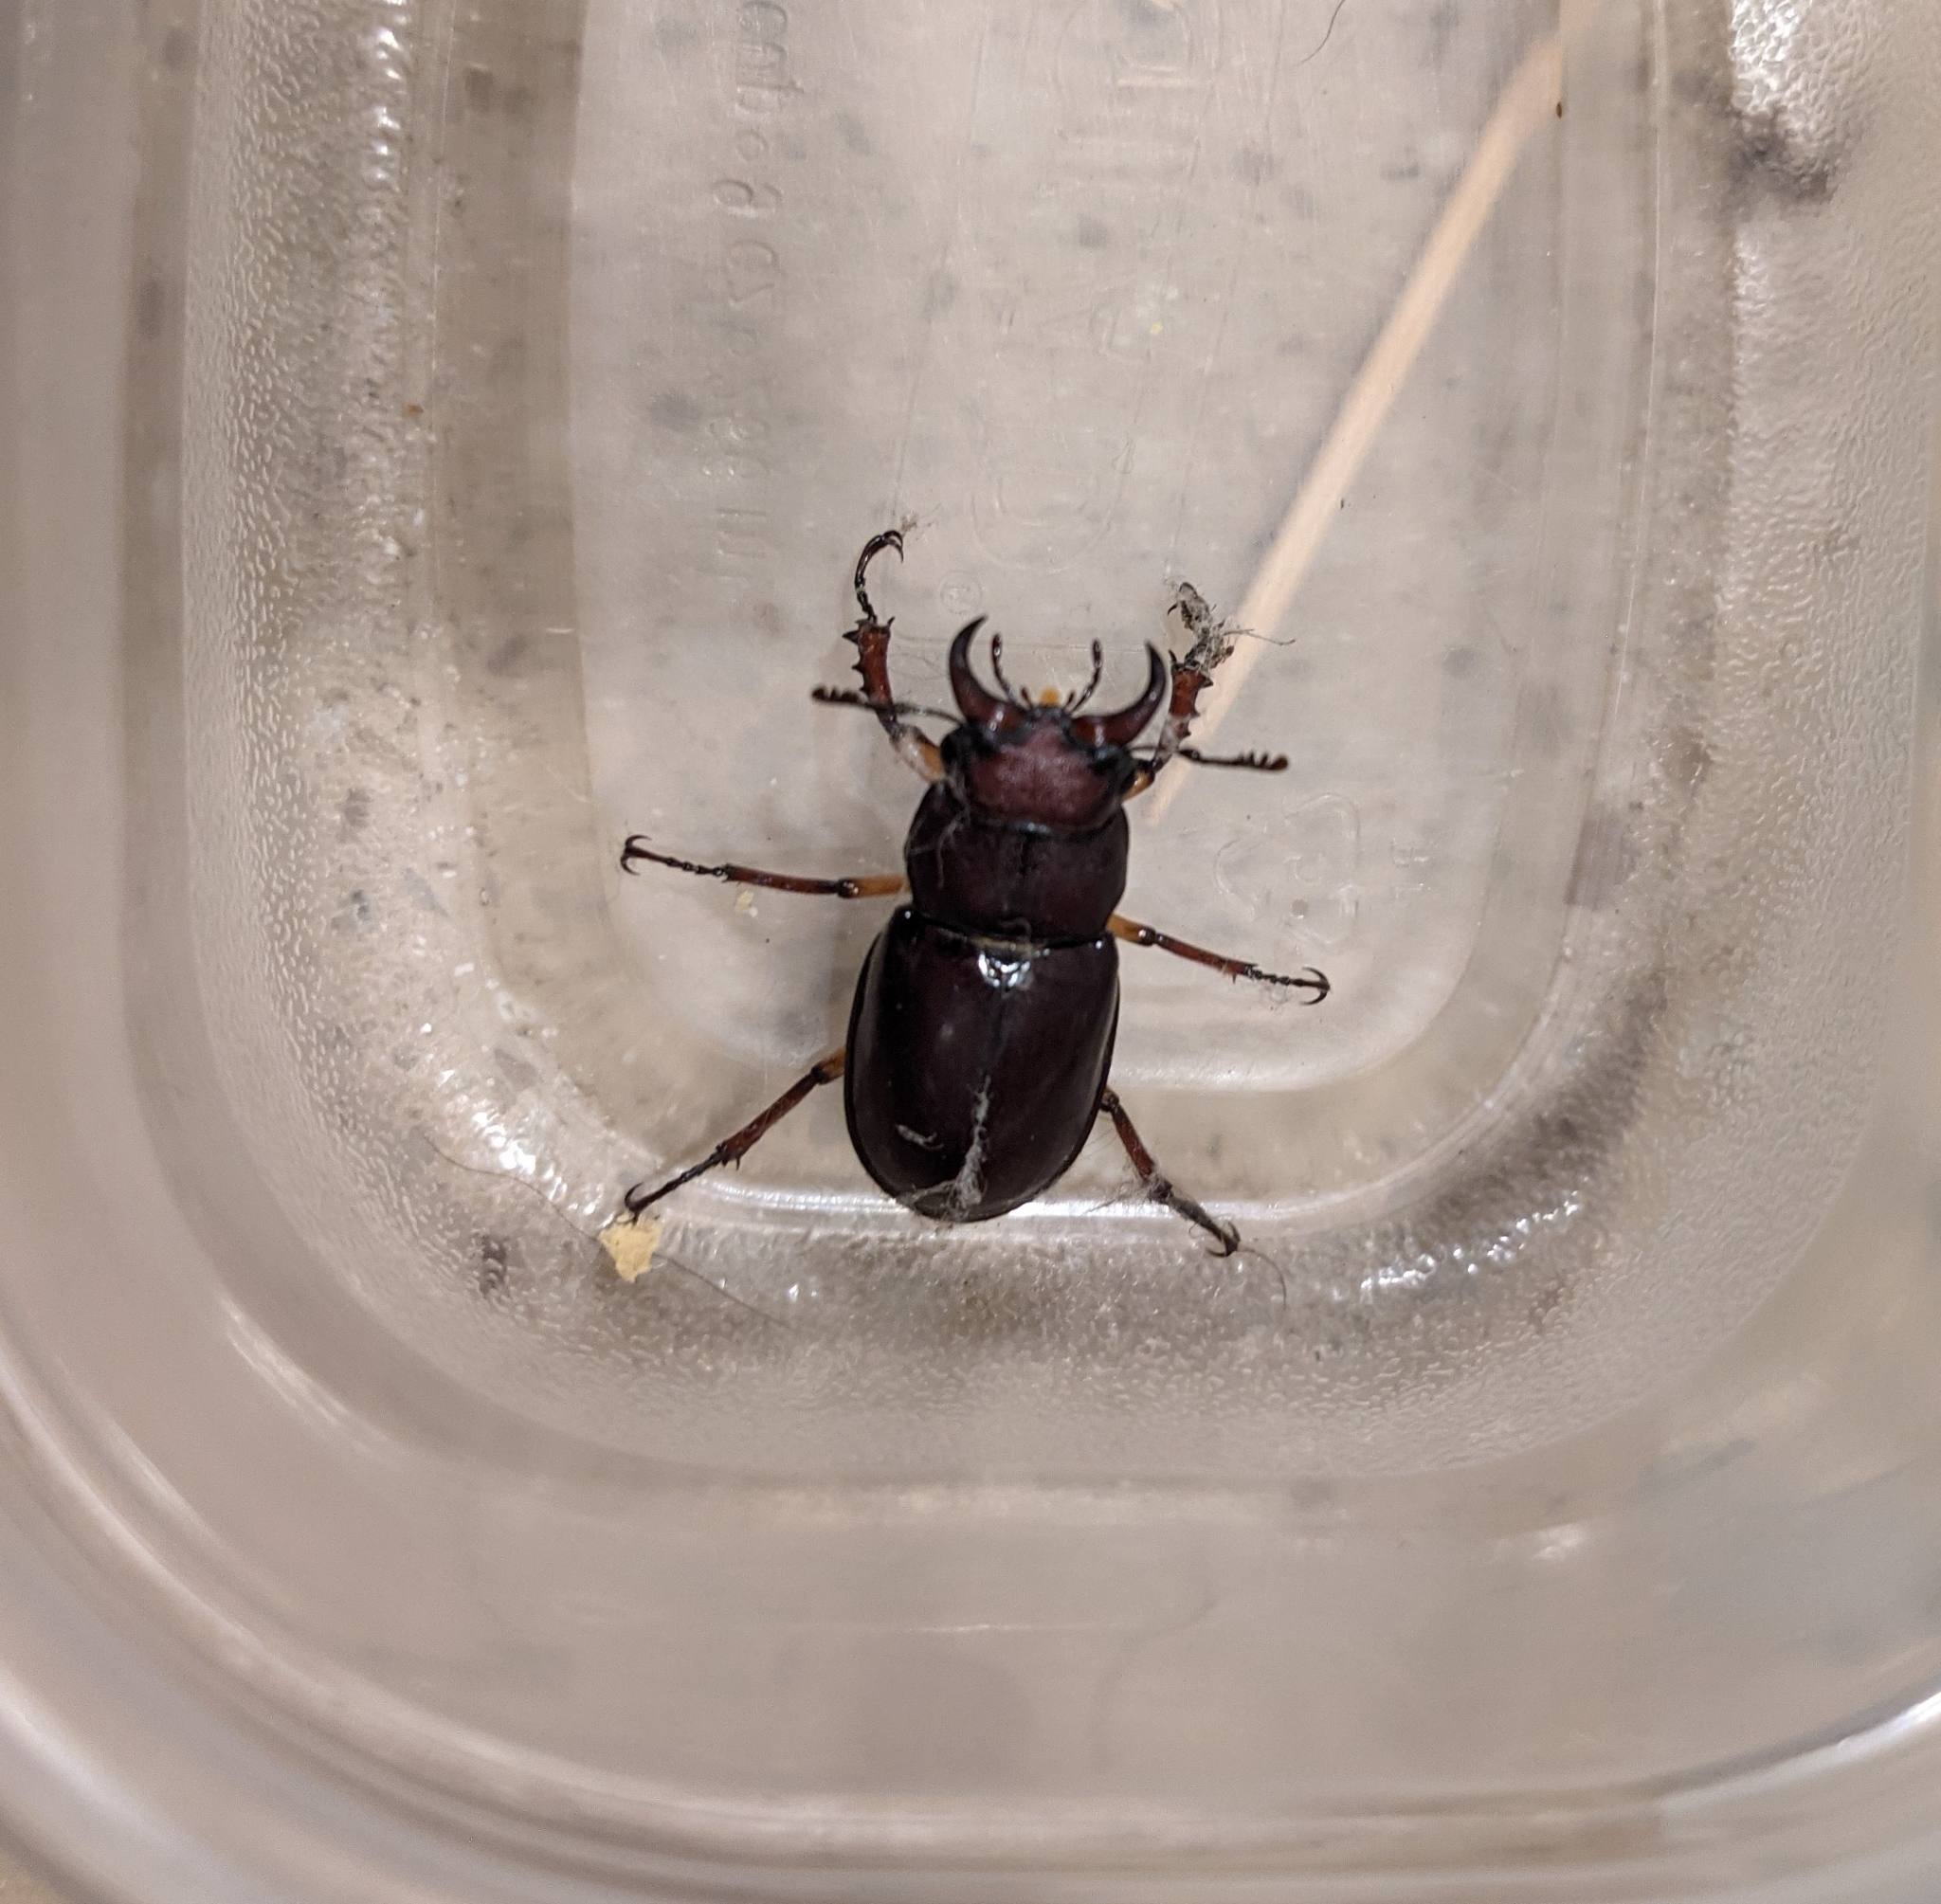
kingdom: Animalia
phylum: Arthropoda
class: Insecta
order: Coleoptera
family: Lucanidae
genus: Lucanus
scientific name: Lucanus capreolus
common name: Stag beetle
